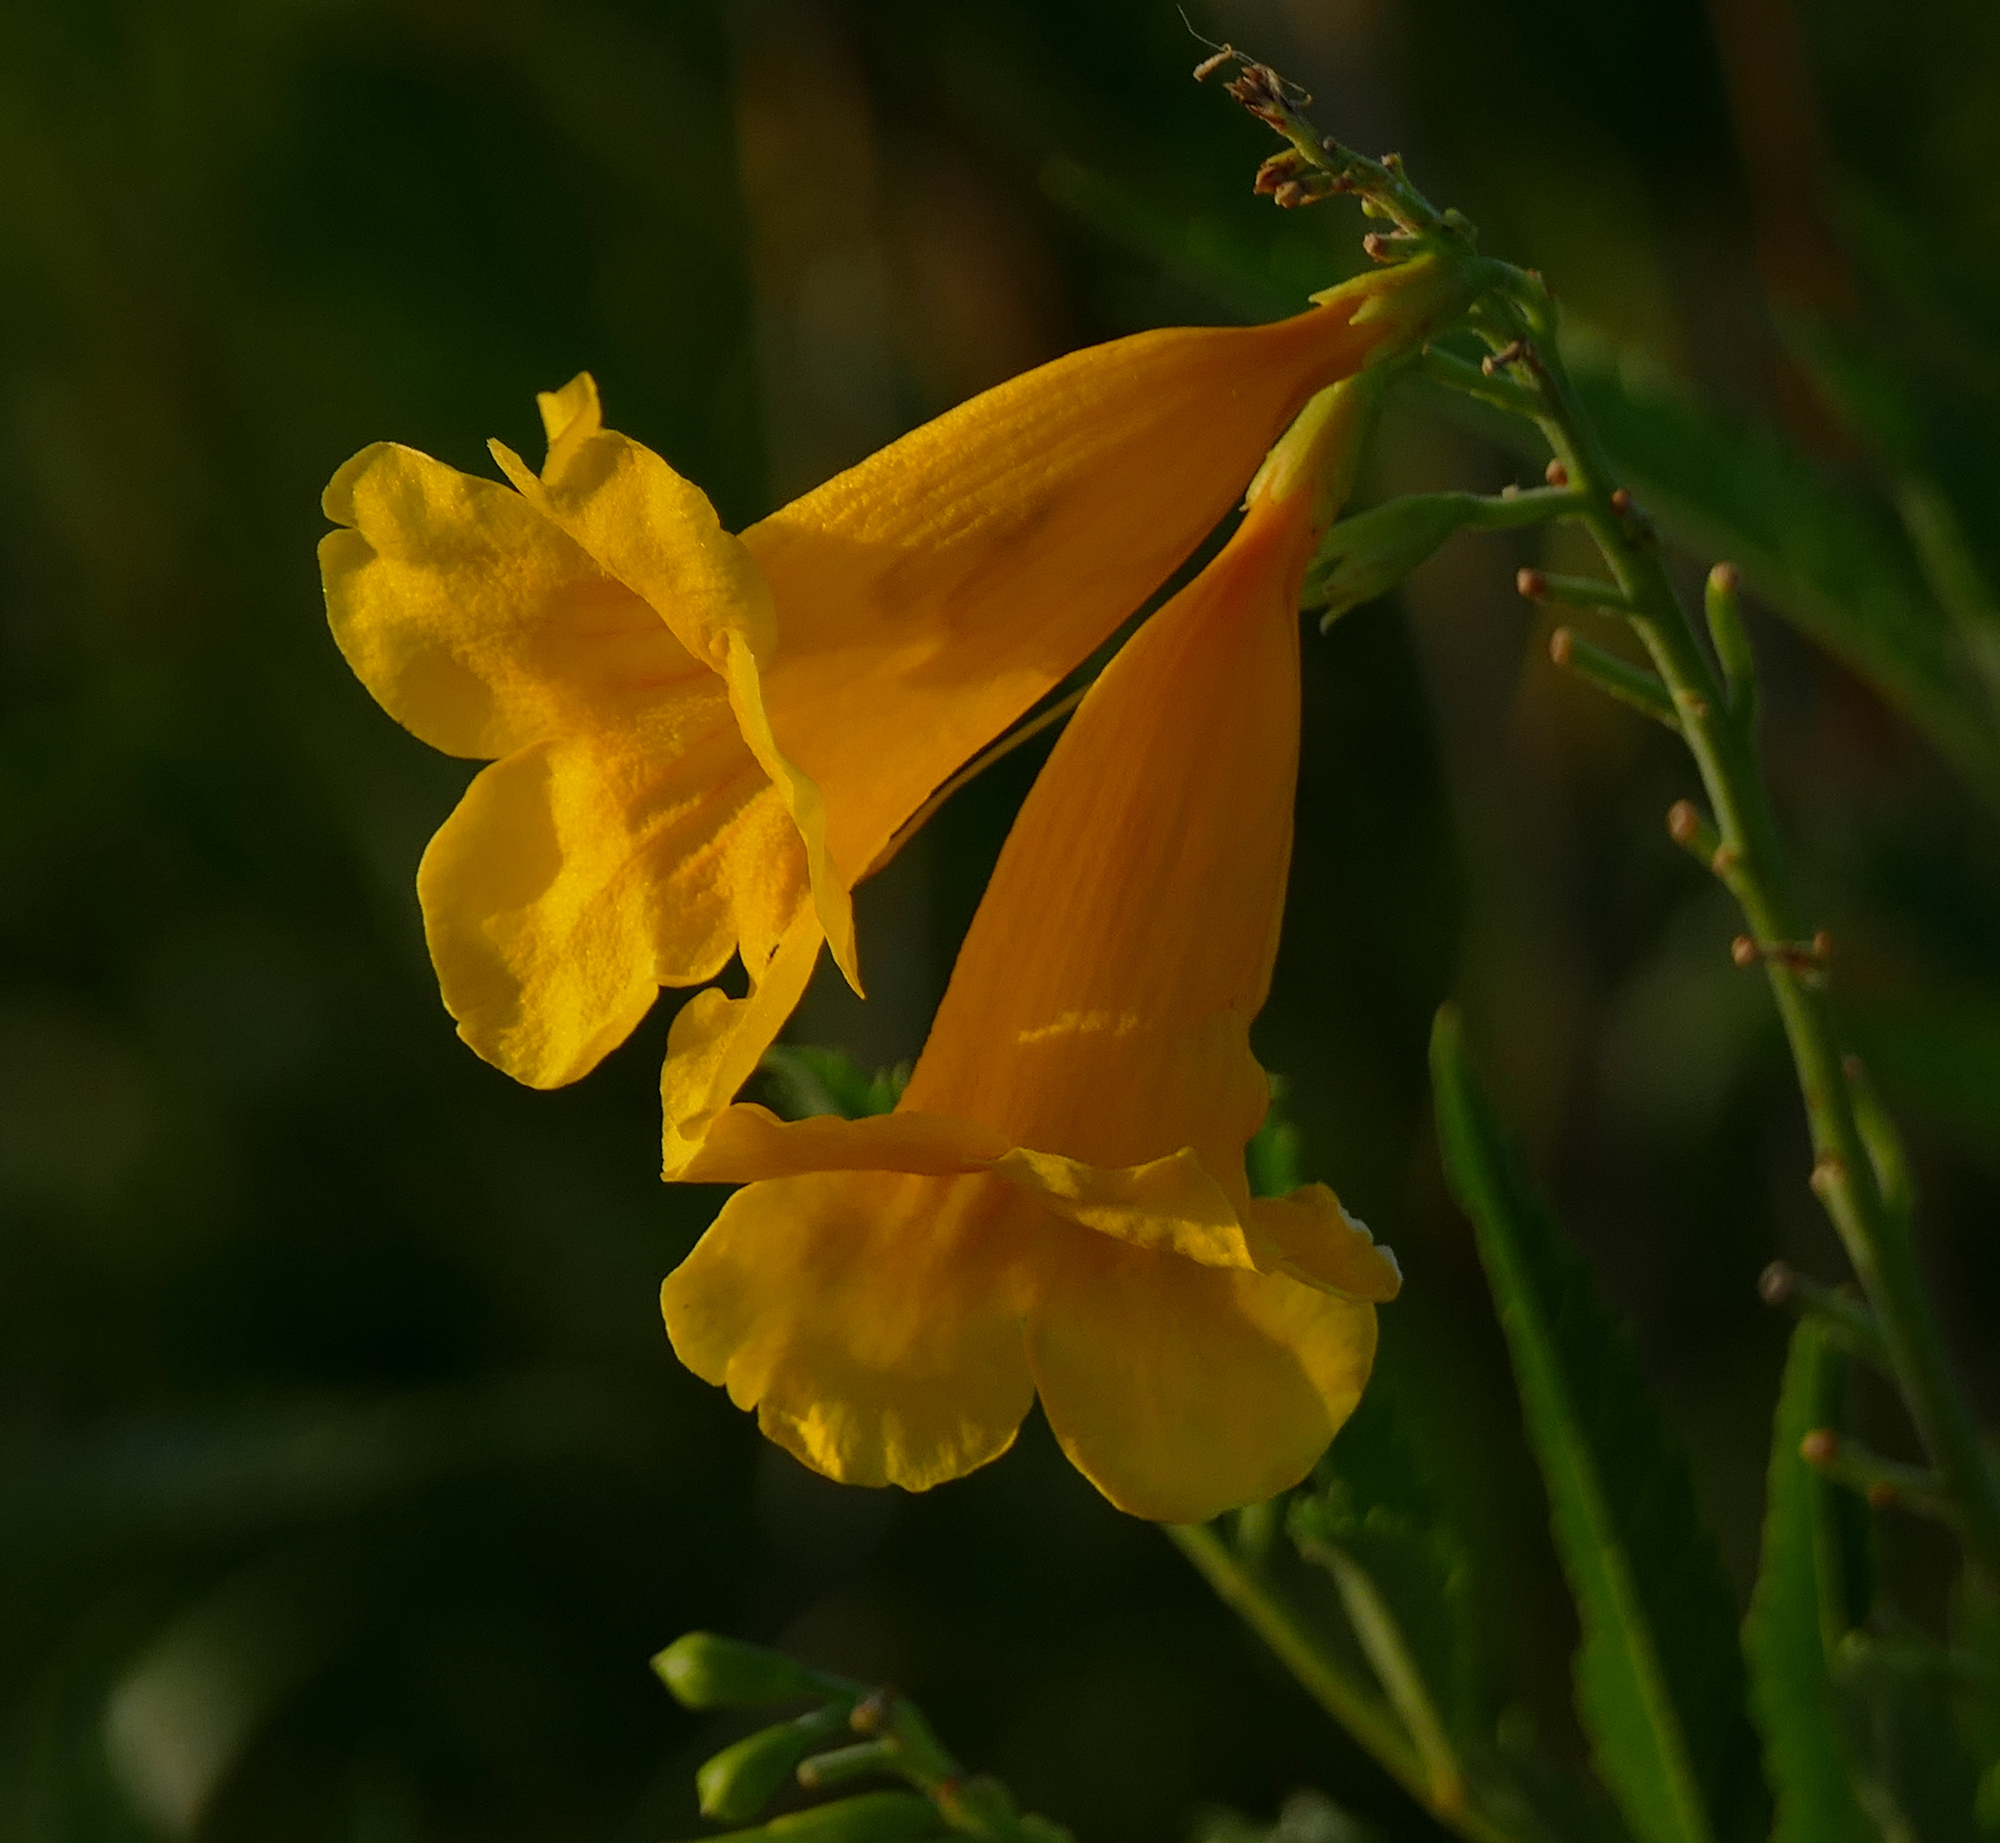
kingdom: Plantae
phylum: Tracheophyta
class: Magnoliopsida
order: Lamiales
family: Bignoniaceae
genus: Tecoma
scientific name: Tecoma stans
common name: Yellow trumpetbush
